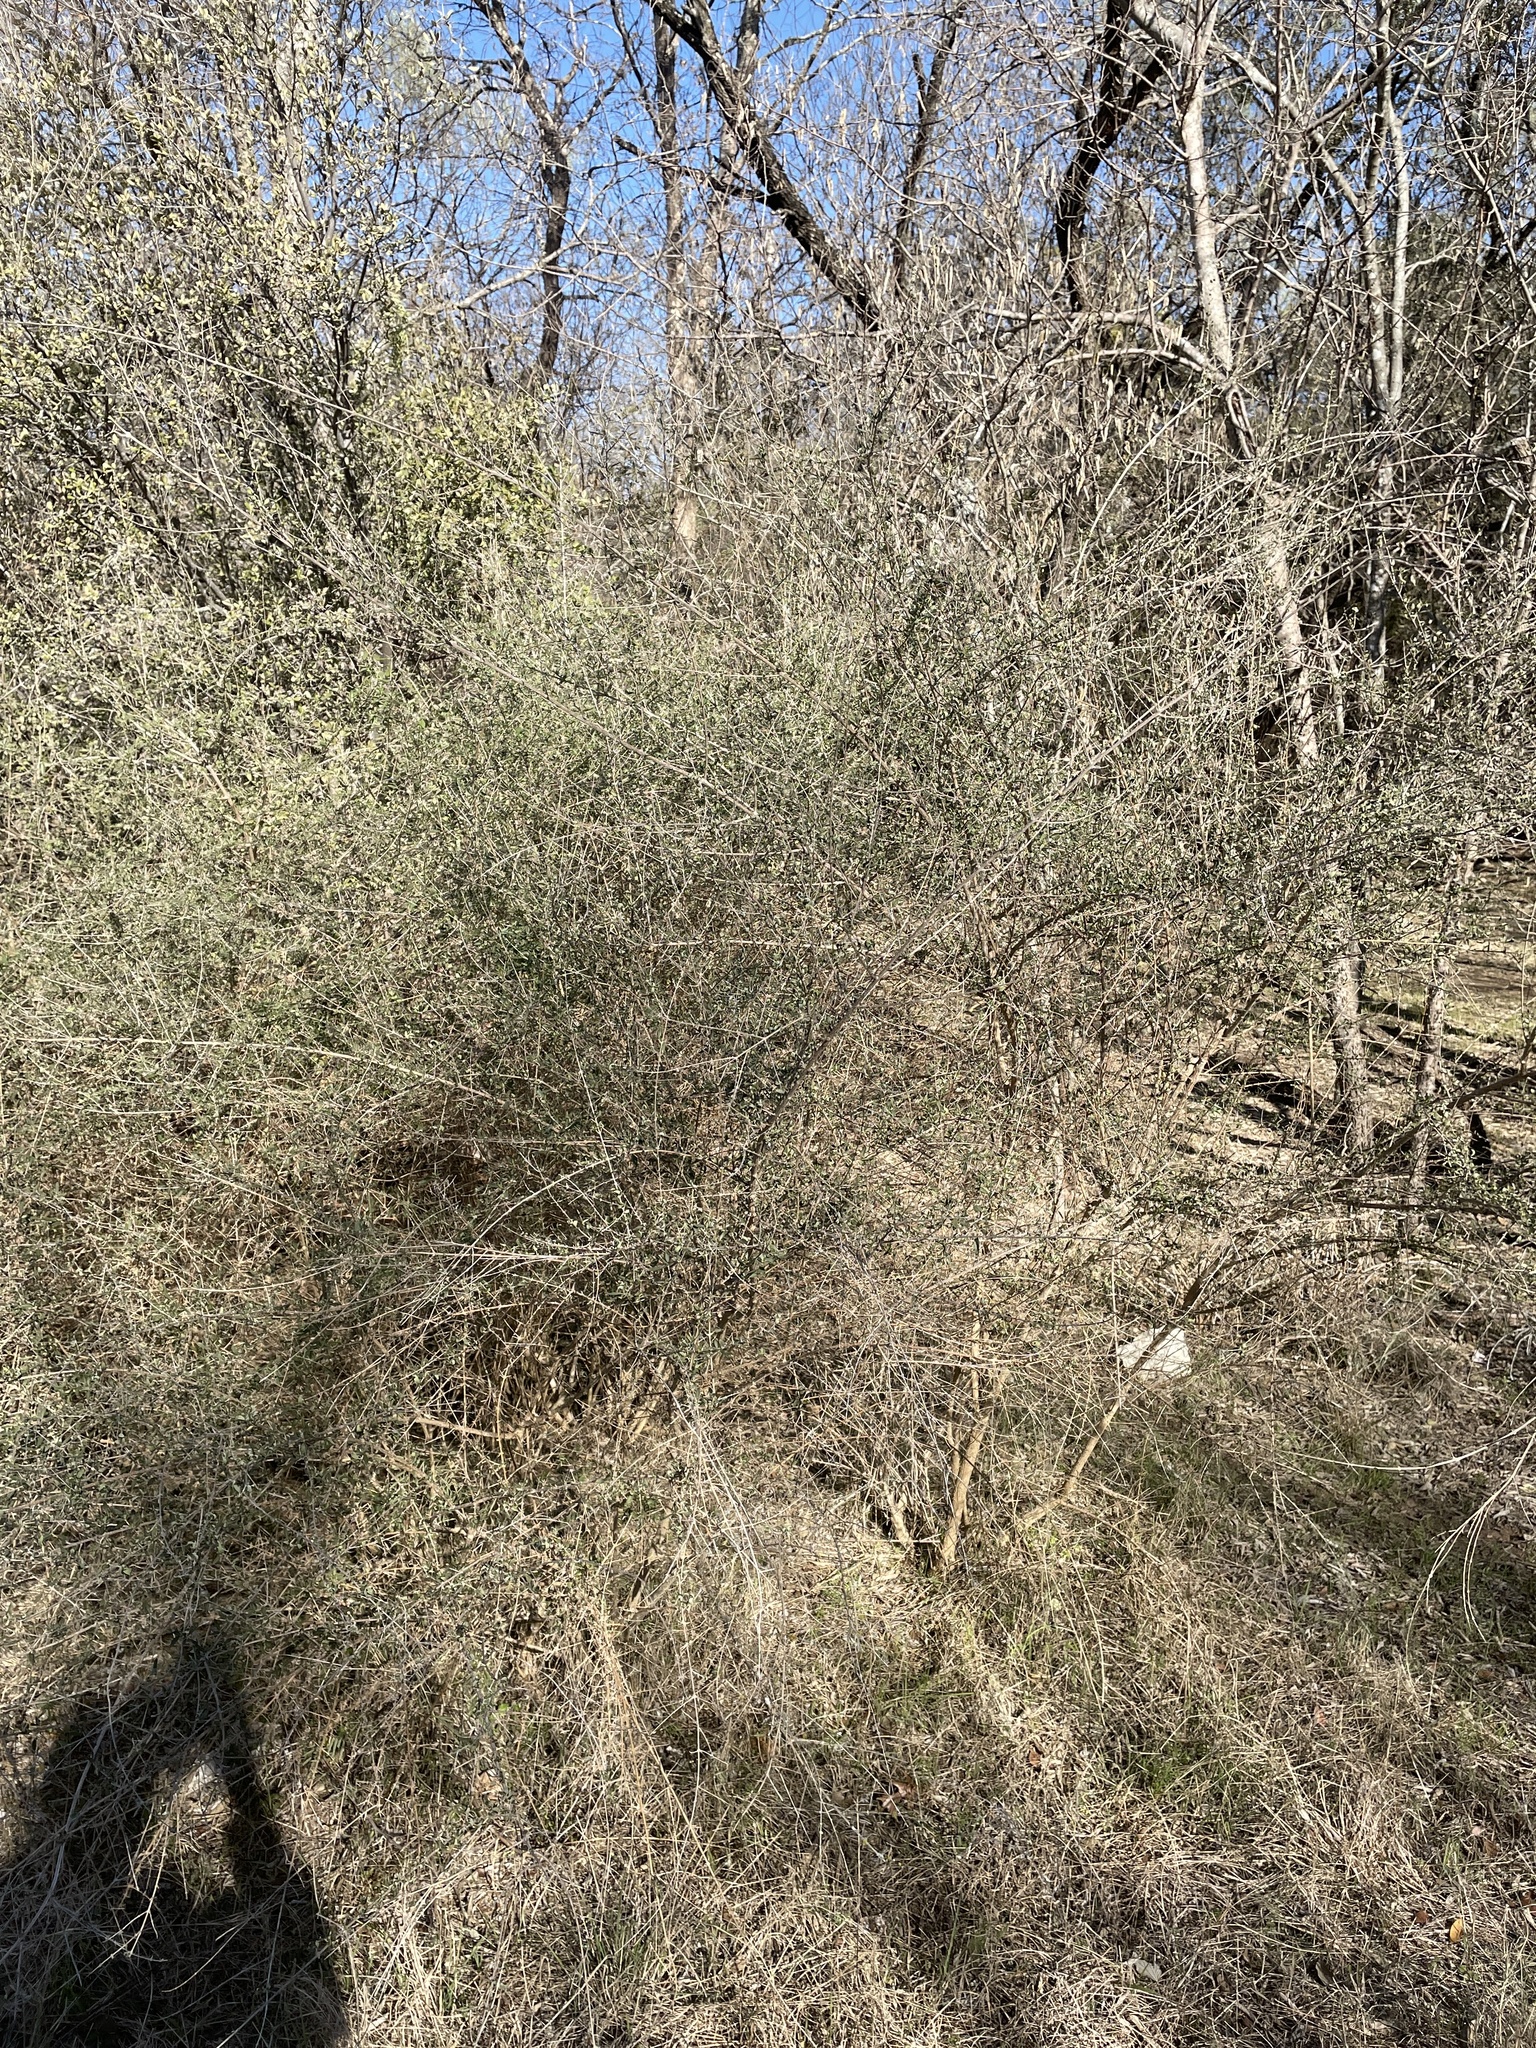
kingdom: Plantae
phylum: Tracheophyta
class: Magnoliopsida
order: Lamiales
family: Verbenaceae
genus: Aloysia
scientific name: Aloysia gratissima
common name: Common bee-brush
